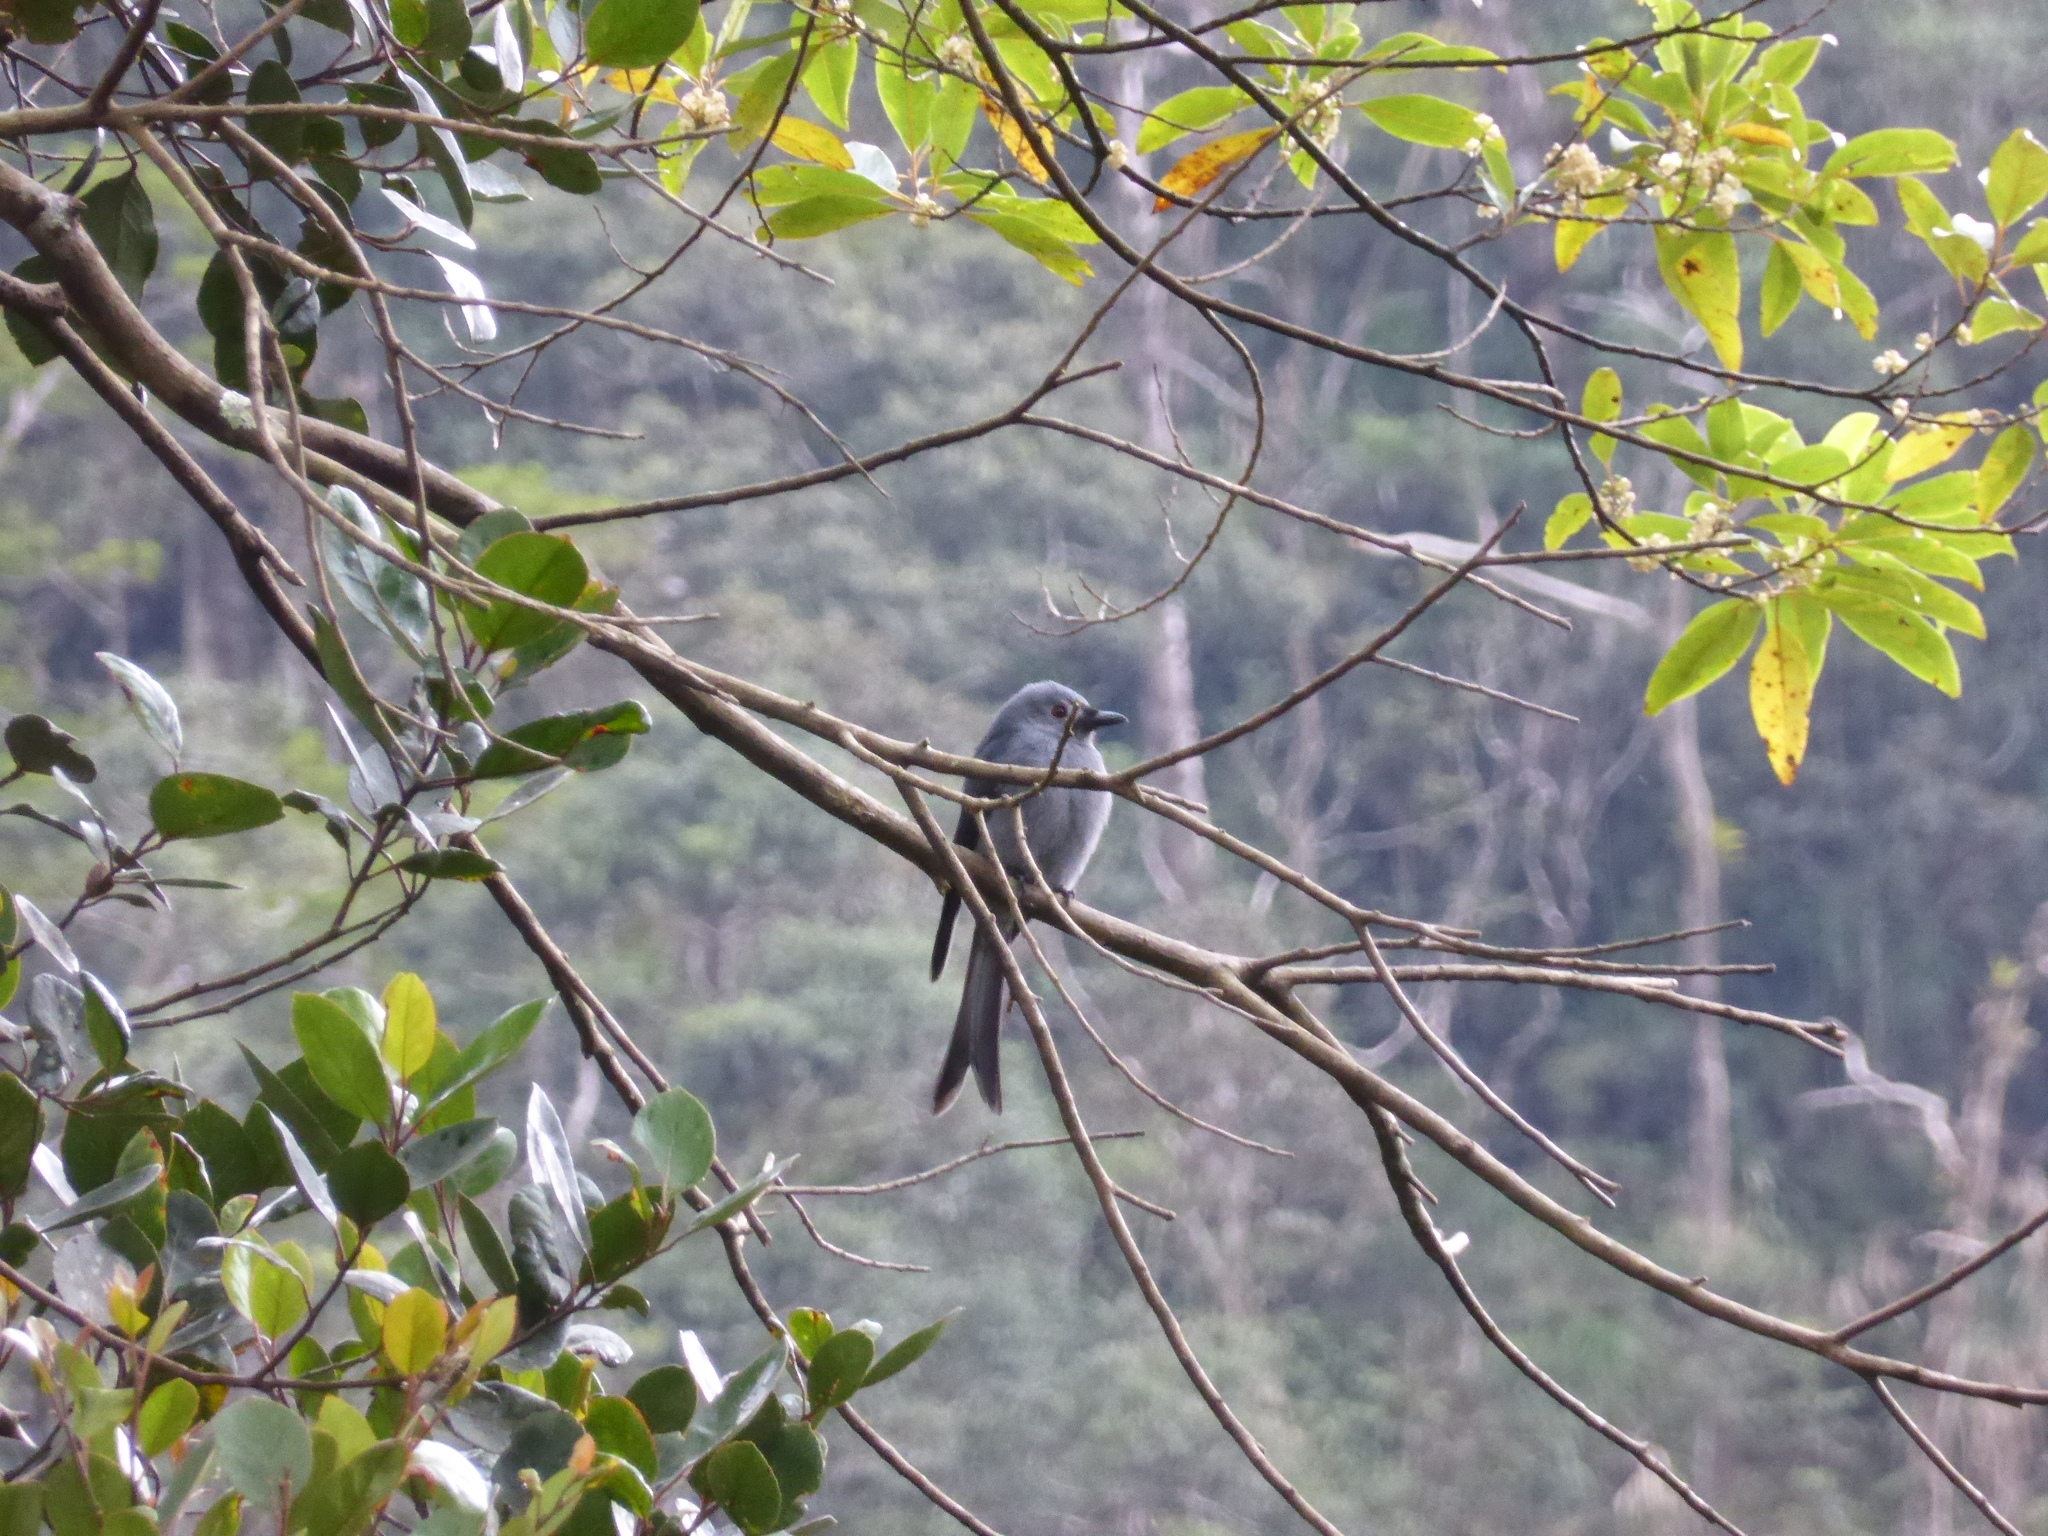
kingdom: Animalia
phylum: Chordata
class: Aves
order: Passeriformes
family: Dicruridae
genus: Dicrurus
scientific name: Dicrurus leucophaeus
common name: Ashy drongo
